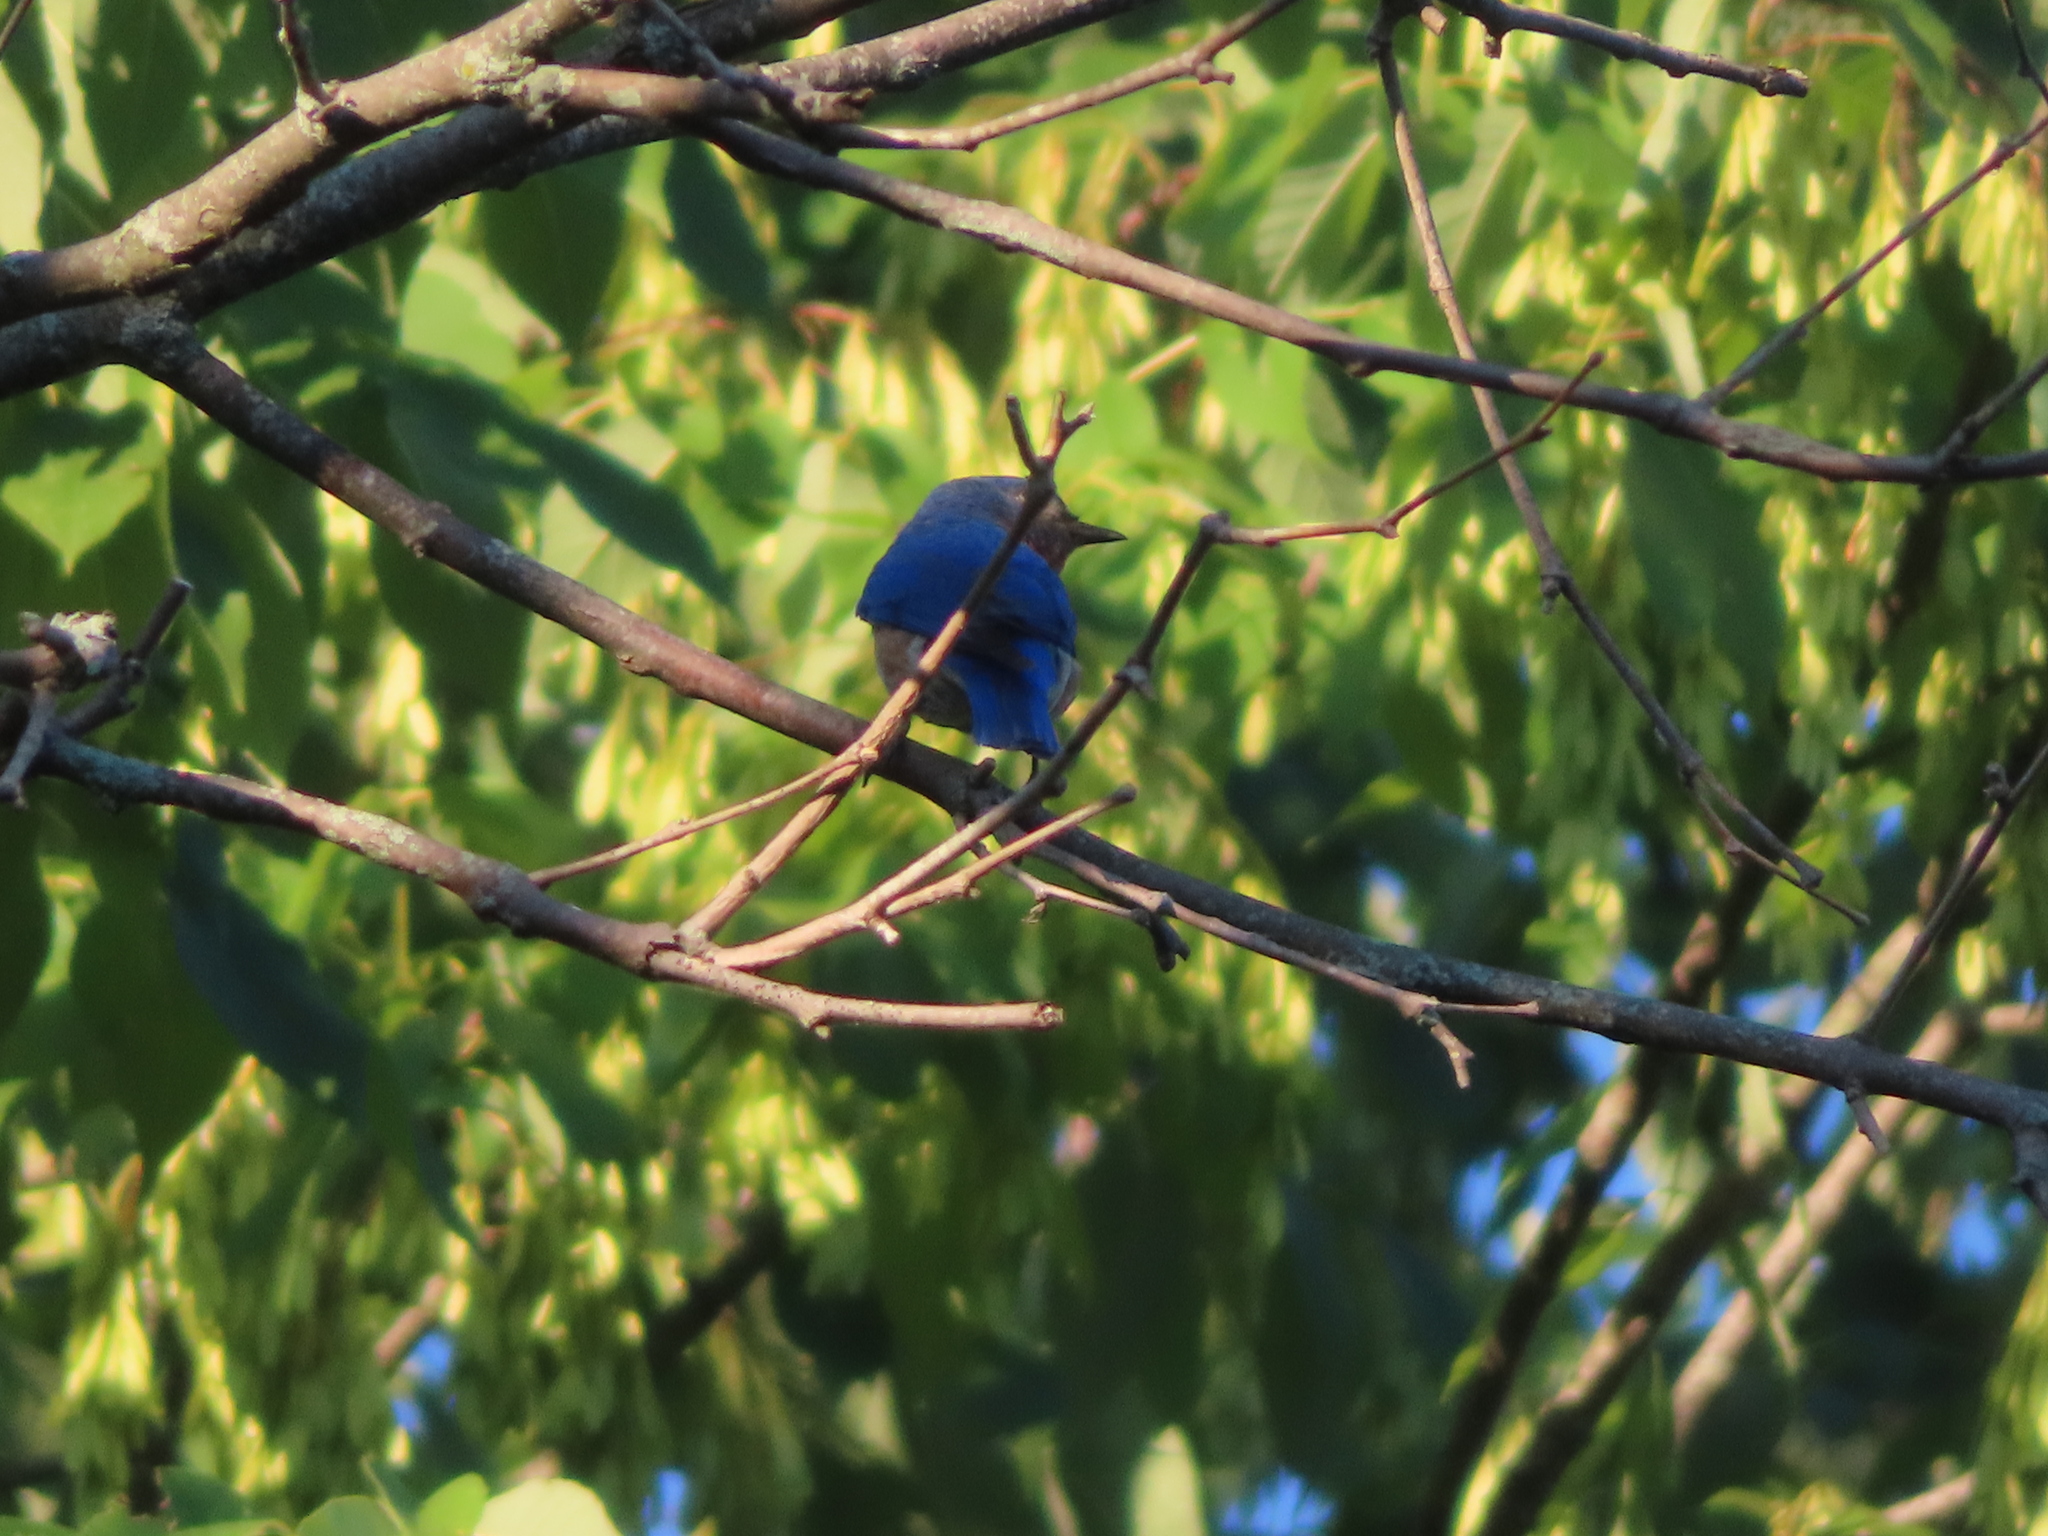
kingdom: Animalia
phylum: Chordata
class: Aves
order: Passeriformes
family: Turdidae
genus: Sialia
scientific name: Sialia sialis
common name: Eastern bluebird
